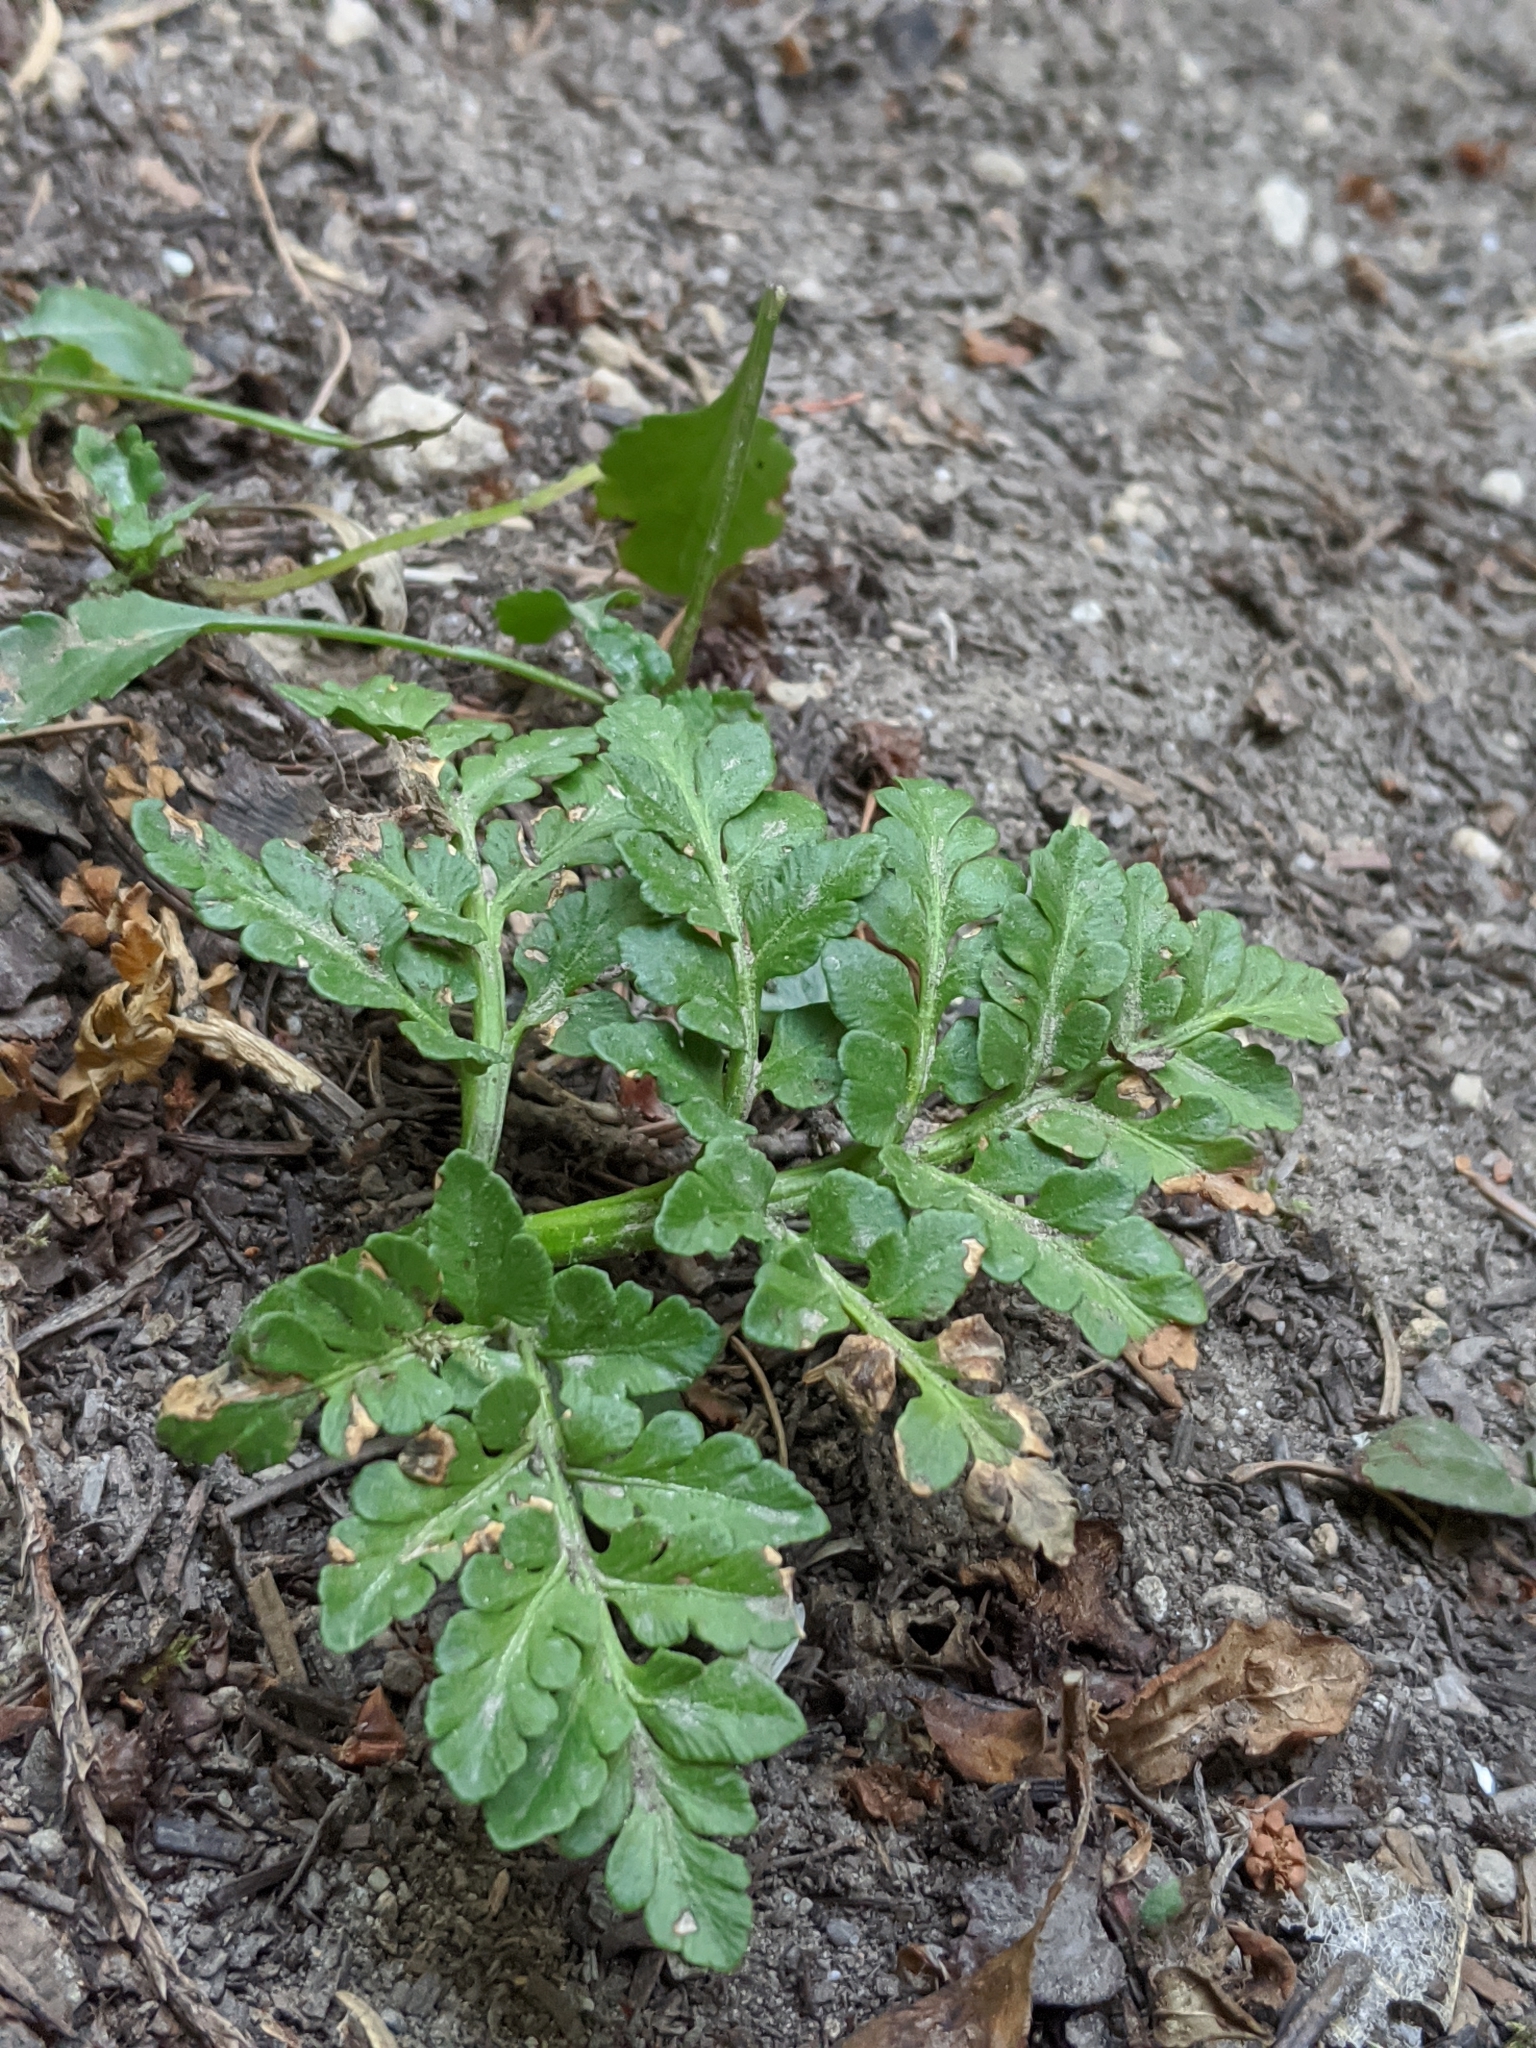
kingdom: Plantae
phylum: Tracheophyta
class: Polypodiopsida
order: Ophioglossales
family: Ophioglossaceae
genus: Sceptridium
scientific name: Sceptridium multifidum
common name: Leathery grape fern
